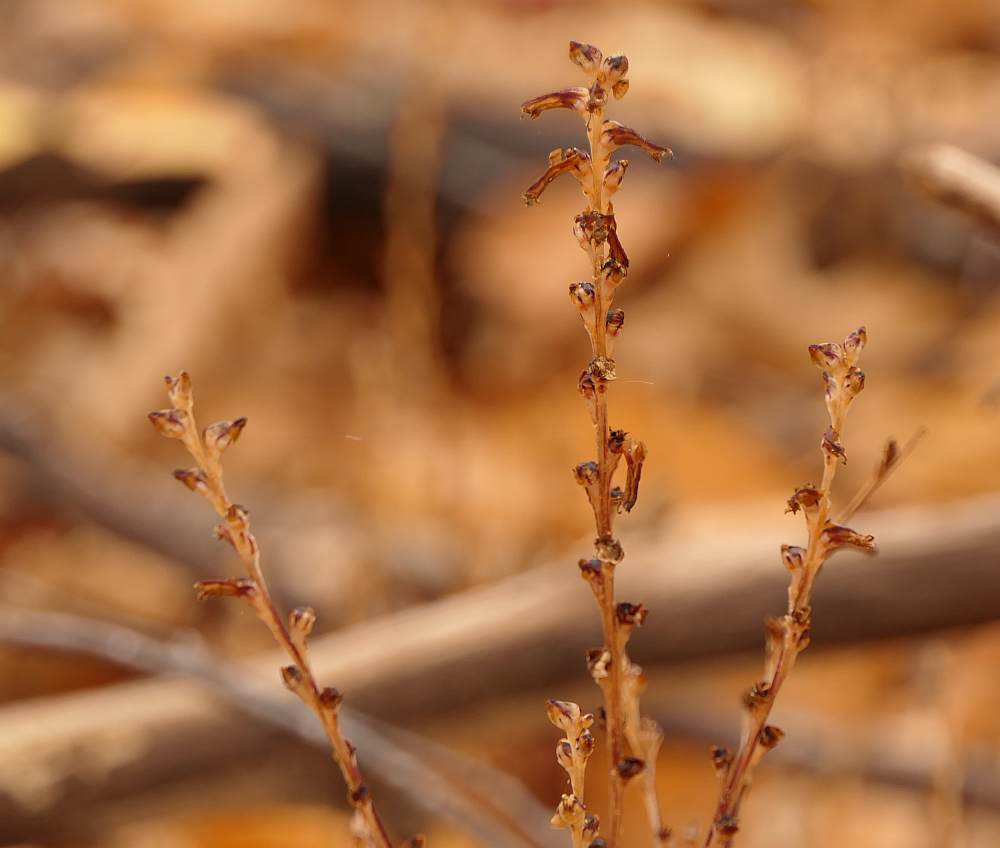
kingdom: Plantae
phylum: Tracheophyta
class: Magnoliopsida
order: Lamiales
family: Orobanchaceae
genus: Epifagus
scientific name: Epifagus virginiana
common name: Beechdrops
